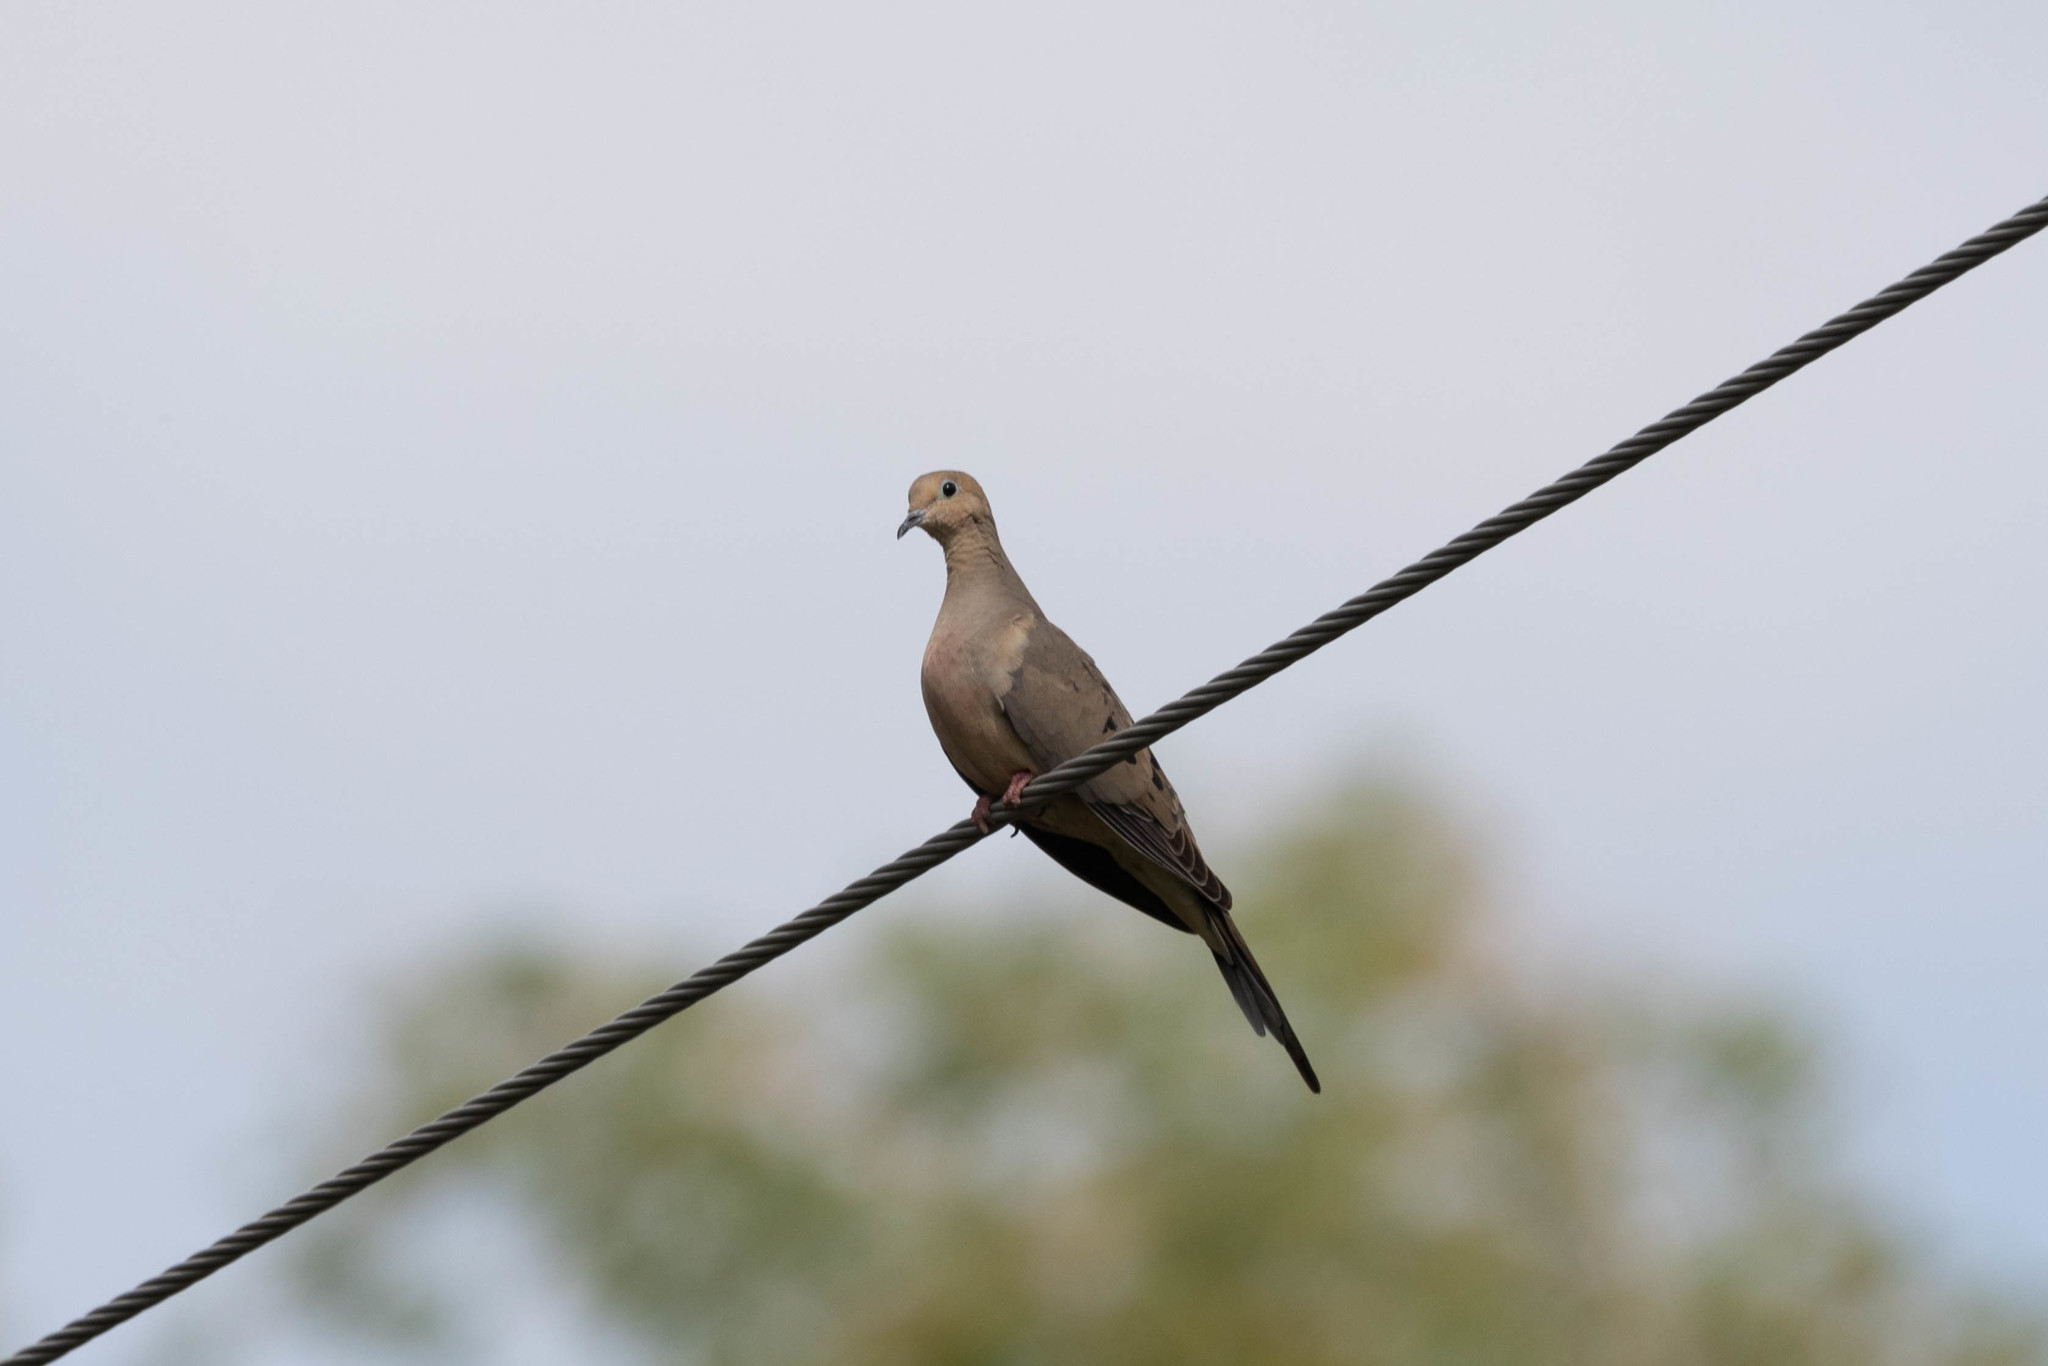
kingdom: Animalia
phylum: Chordata
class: Aves
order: Columbiformes
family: Columbidae
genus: Zenaida
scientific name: Zenaida macroura
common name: Mourning dove
